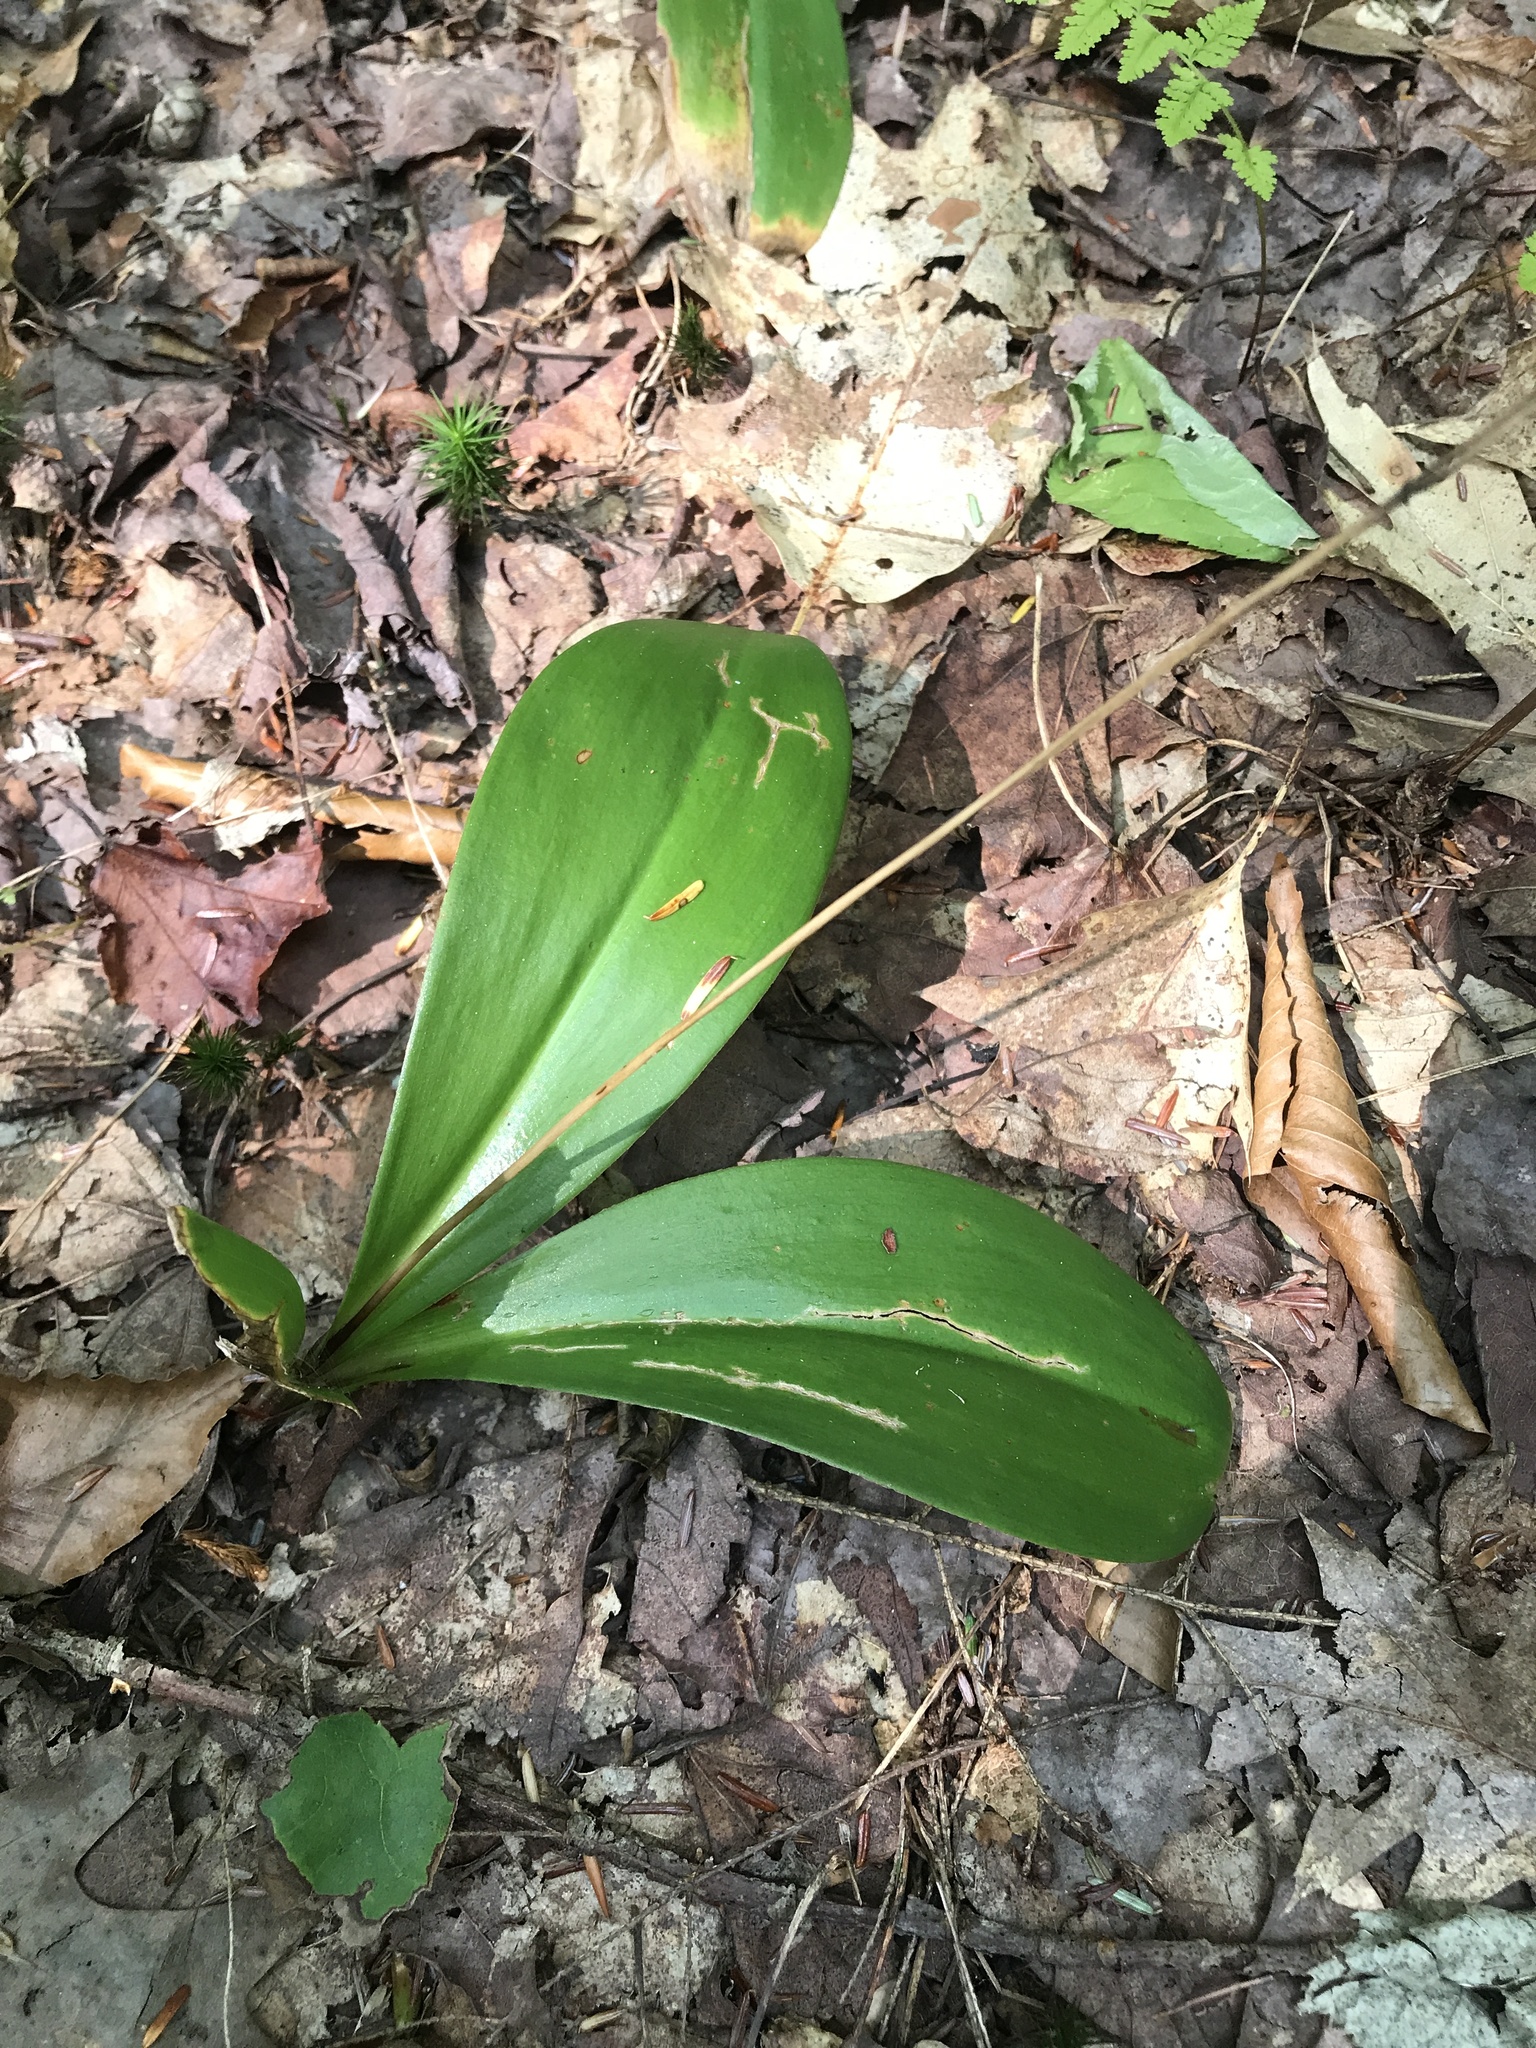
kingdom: Plantae
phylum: Tracheophyta
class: Liliopsida
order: Liliales
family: Liliaceae
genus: Clintonia
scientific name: Clintonia borealis
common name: Yellow clintonia
